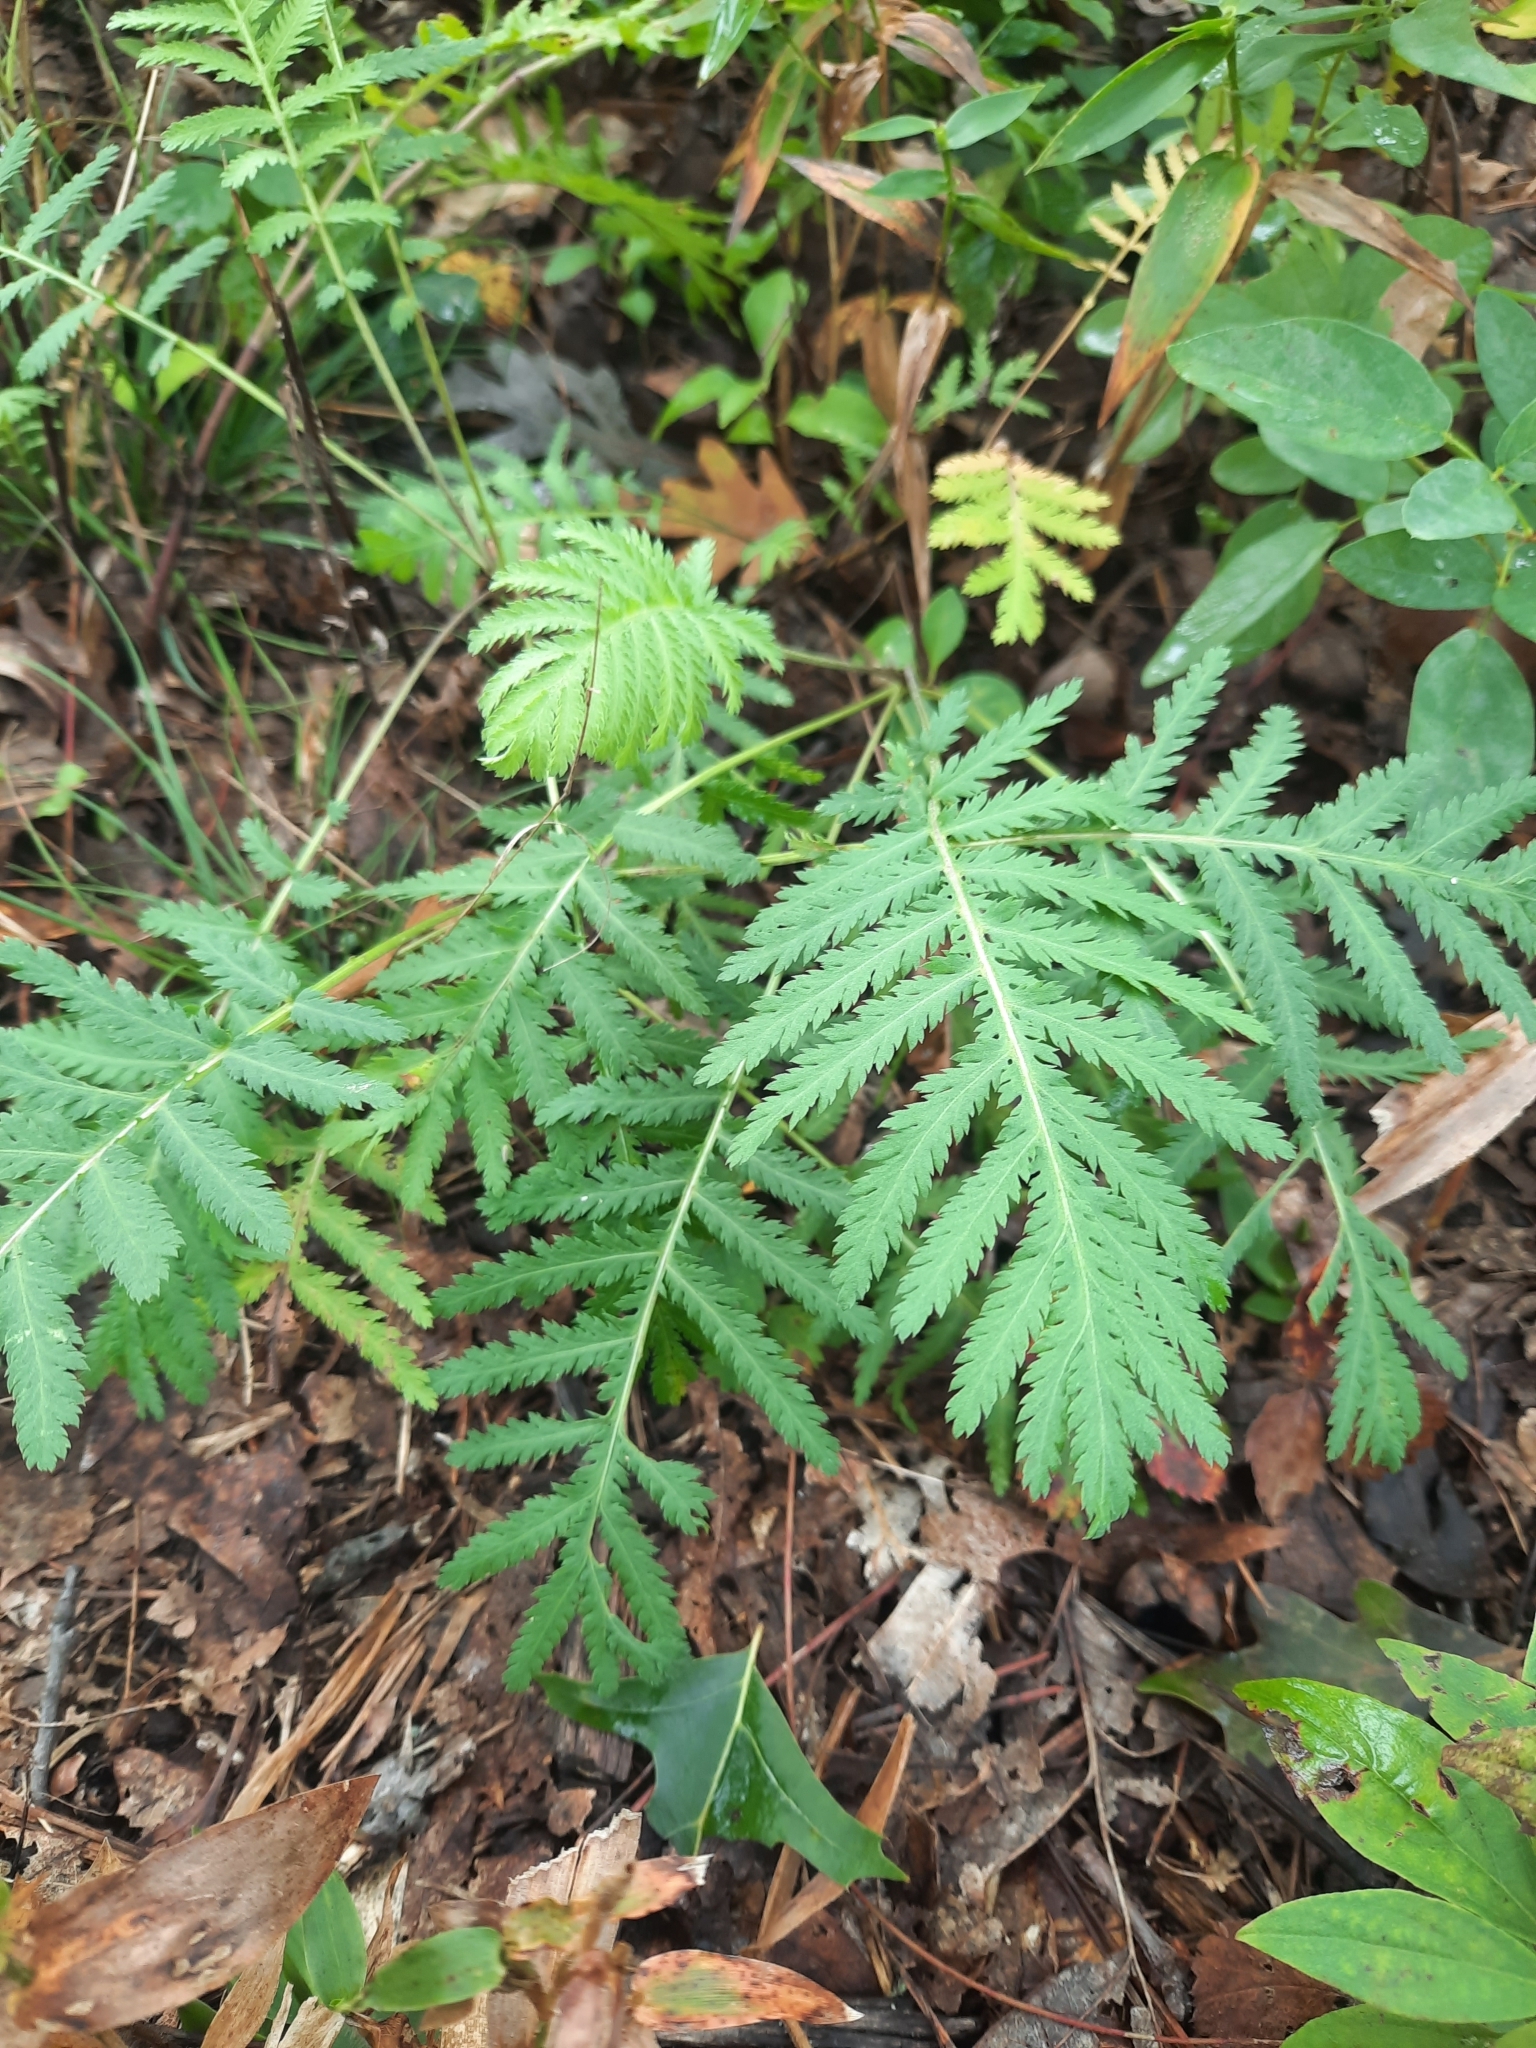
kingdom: Plantae
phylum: Tracheophyta
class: Magnoliopsida
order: Asterales
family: Asteraceae
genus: Tanacetum
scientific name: Tanacetum vulgare
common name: Common tansy
